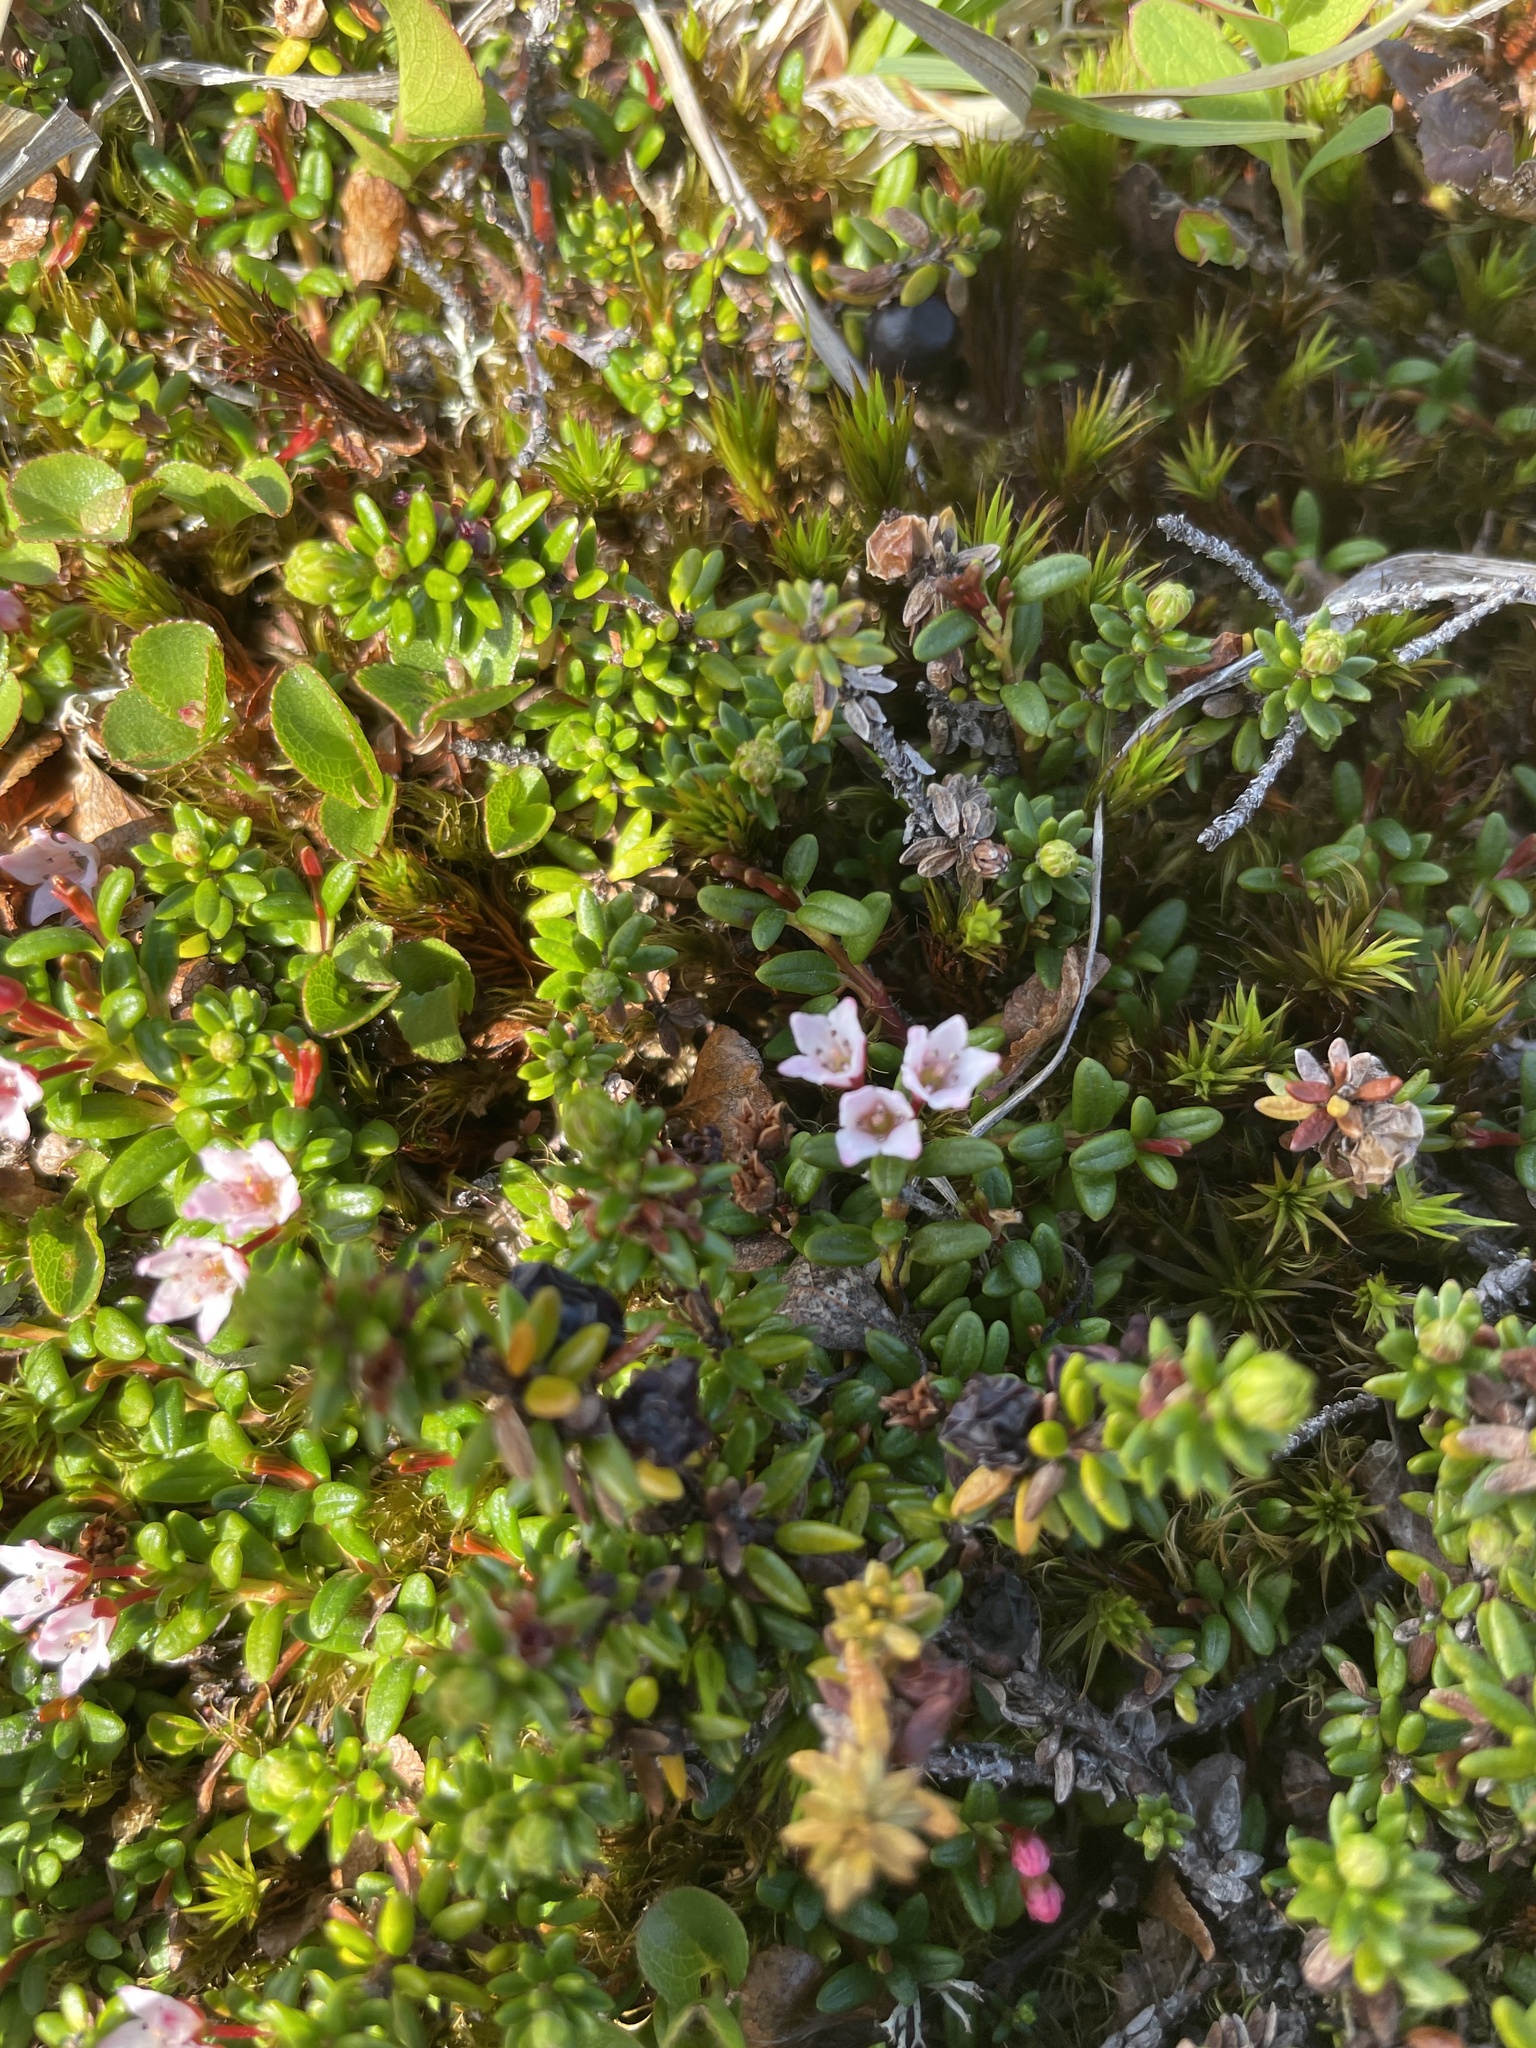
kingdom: Plantae
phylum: Tracheophyta
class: Magnoliopsida
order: Ericales
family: Ericaceae
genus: Kalmia
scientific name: Kalmia procumbens
